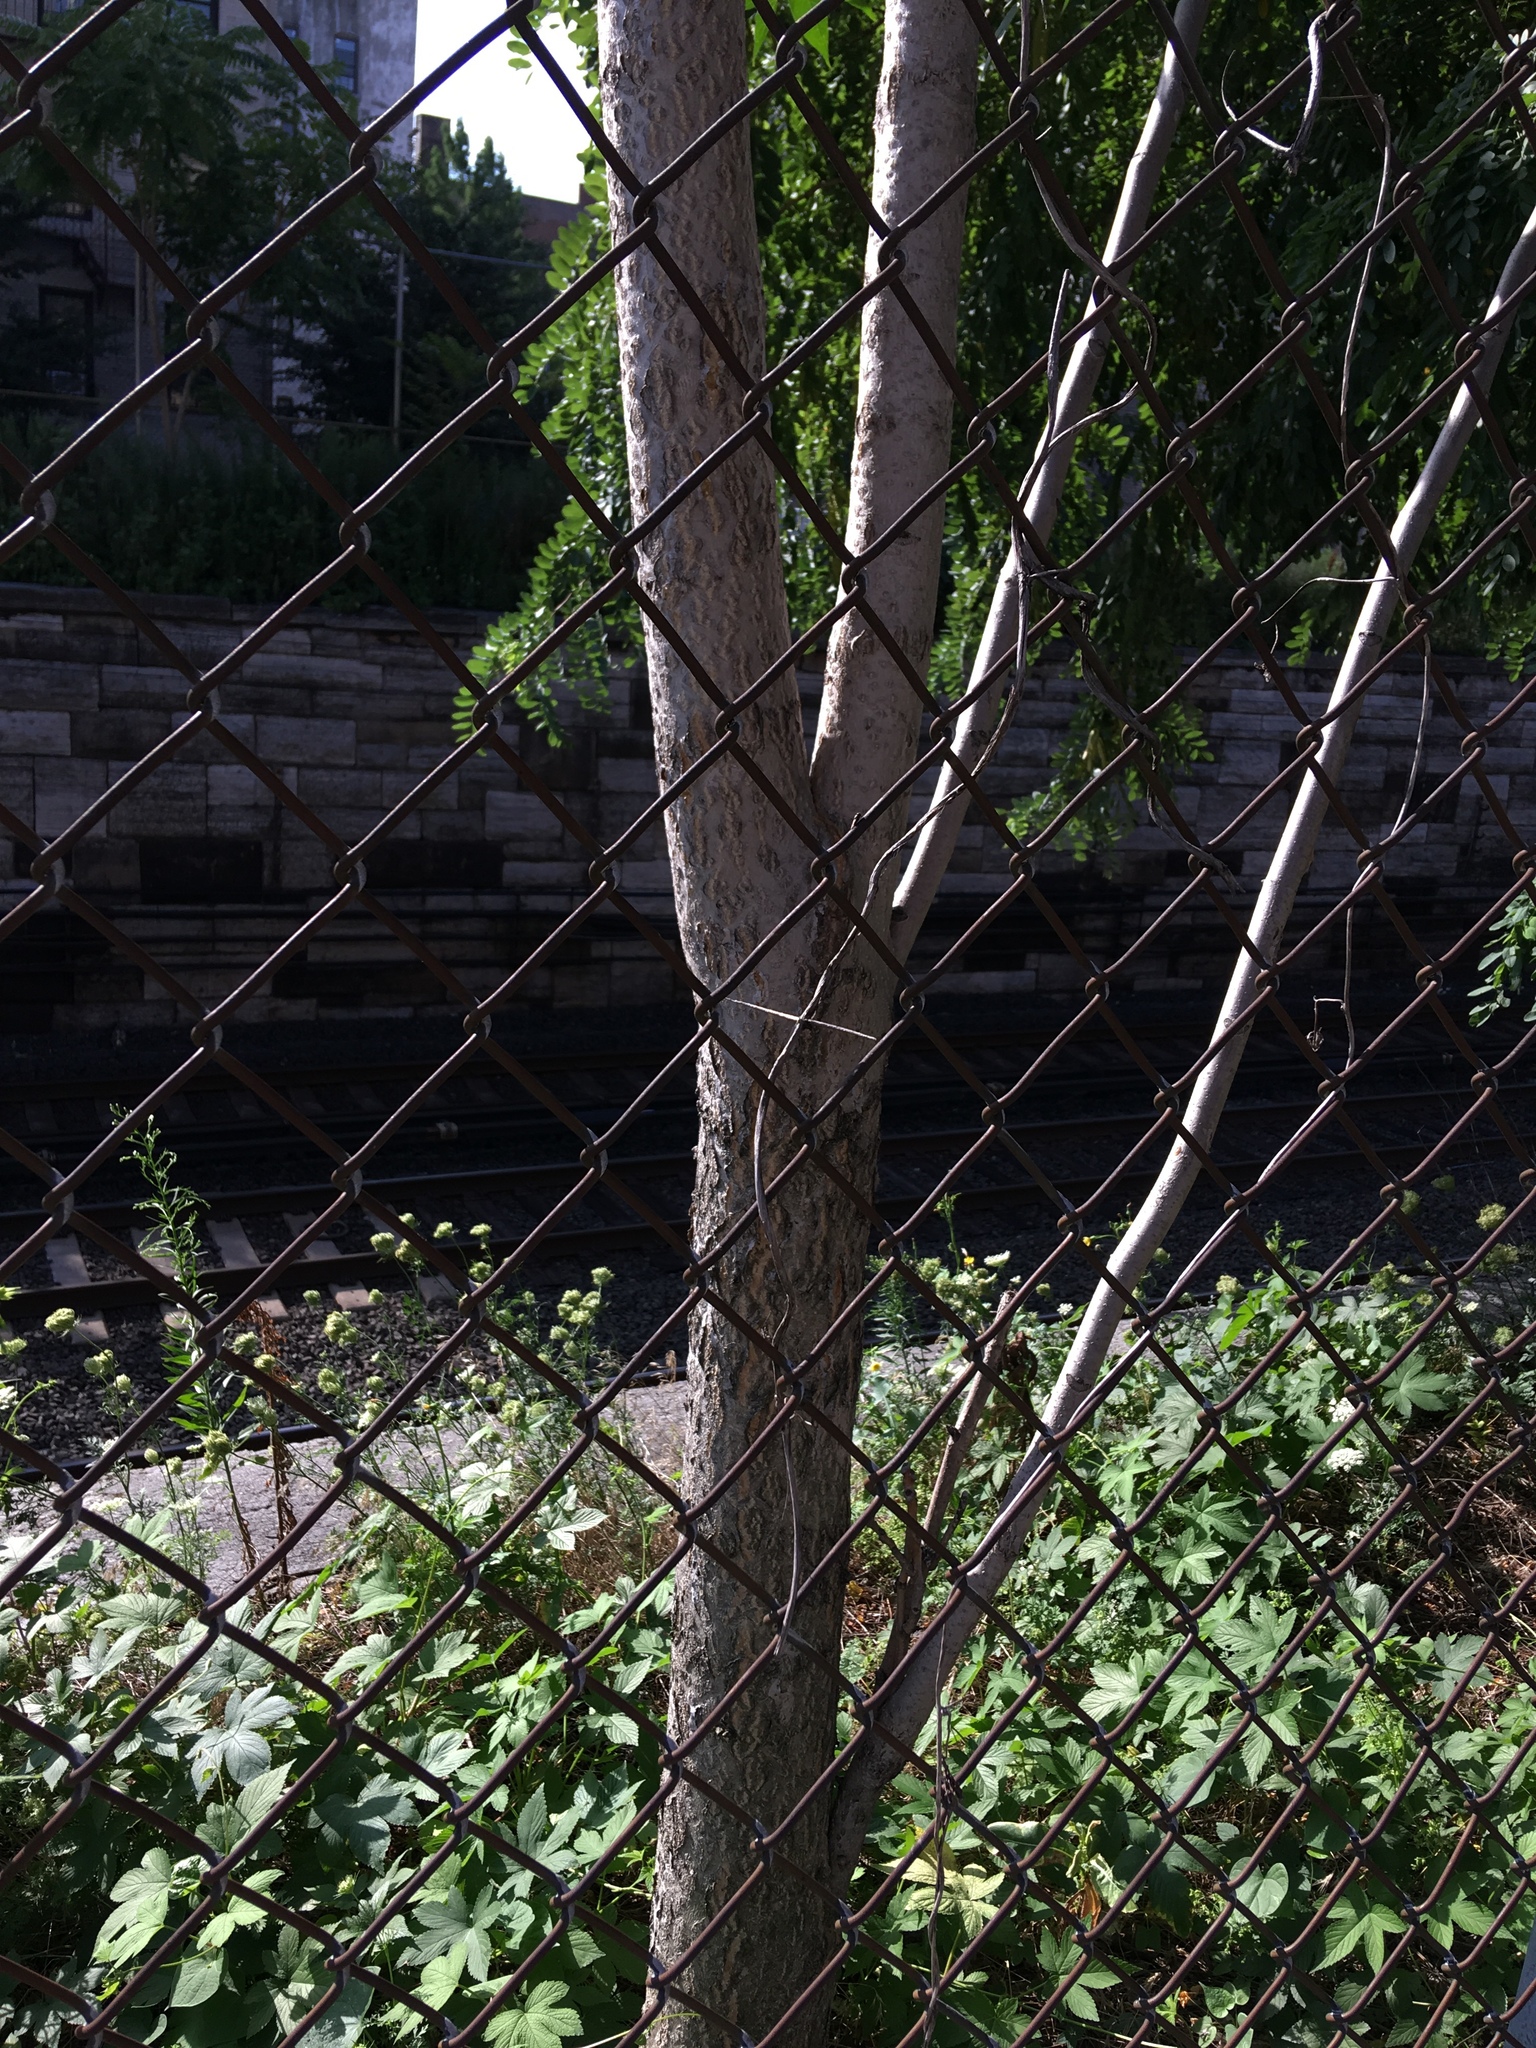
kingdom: Plantae
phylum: Tracheophyta
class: Magnoliopsida
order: Sapindales
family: Simaroubaceae
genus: Ailanthus
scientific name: Ailanthus altissima
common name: Tree-of-heaven
